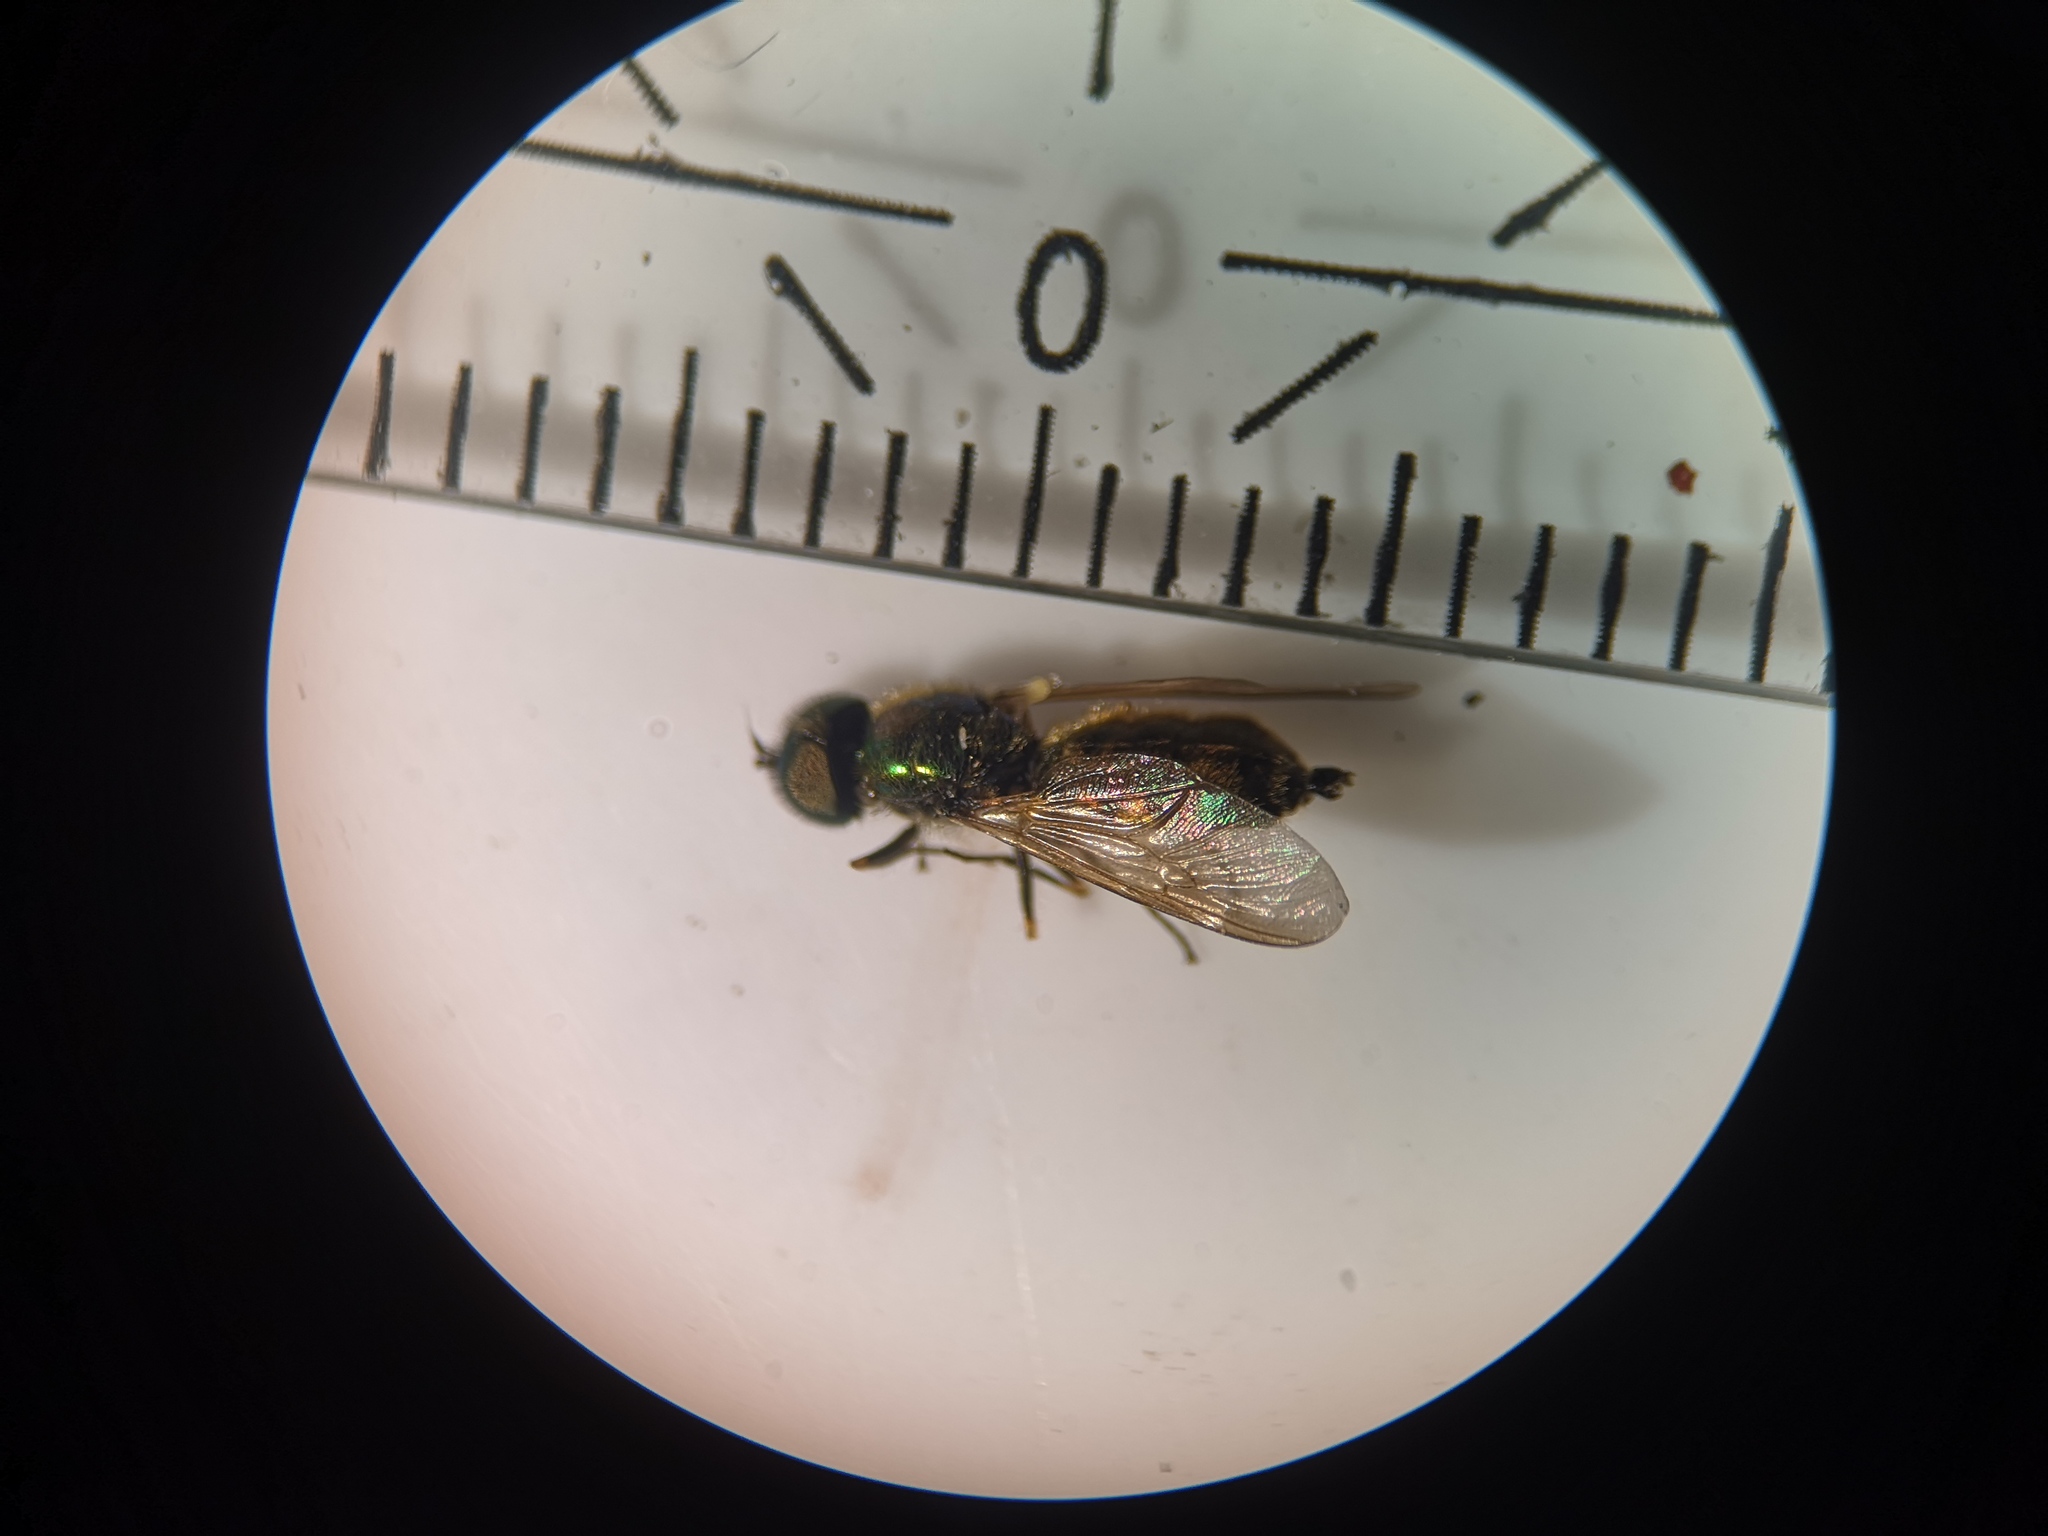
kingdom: Animalia
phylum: Arthropoda
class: Insecta
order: Diptera
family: Stratiomyidae
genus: Chloromyia
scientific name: Chloromyia formosa
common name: Soldier fly
